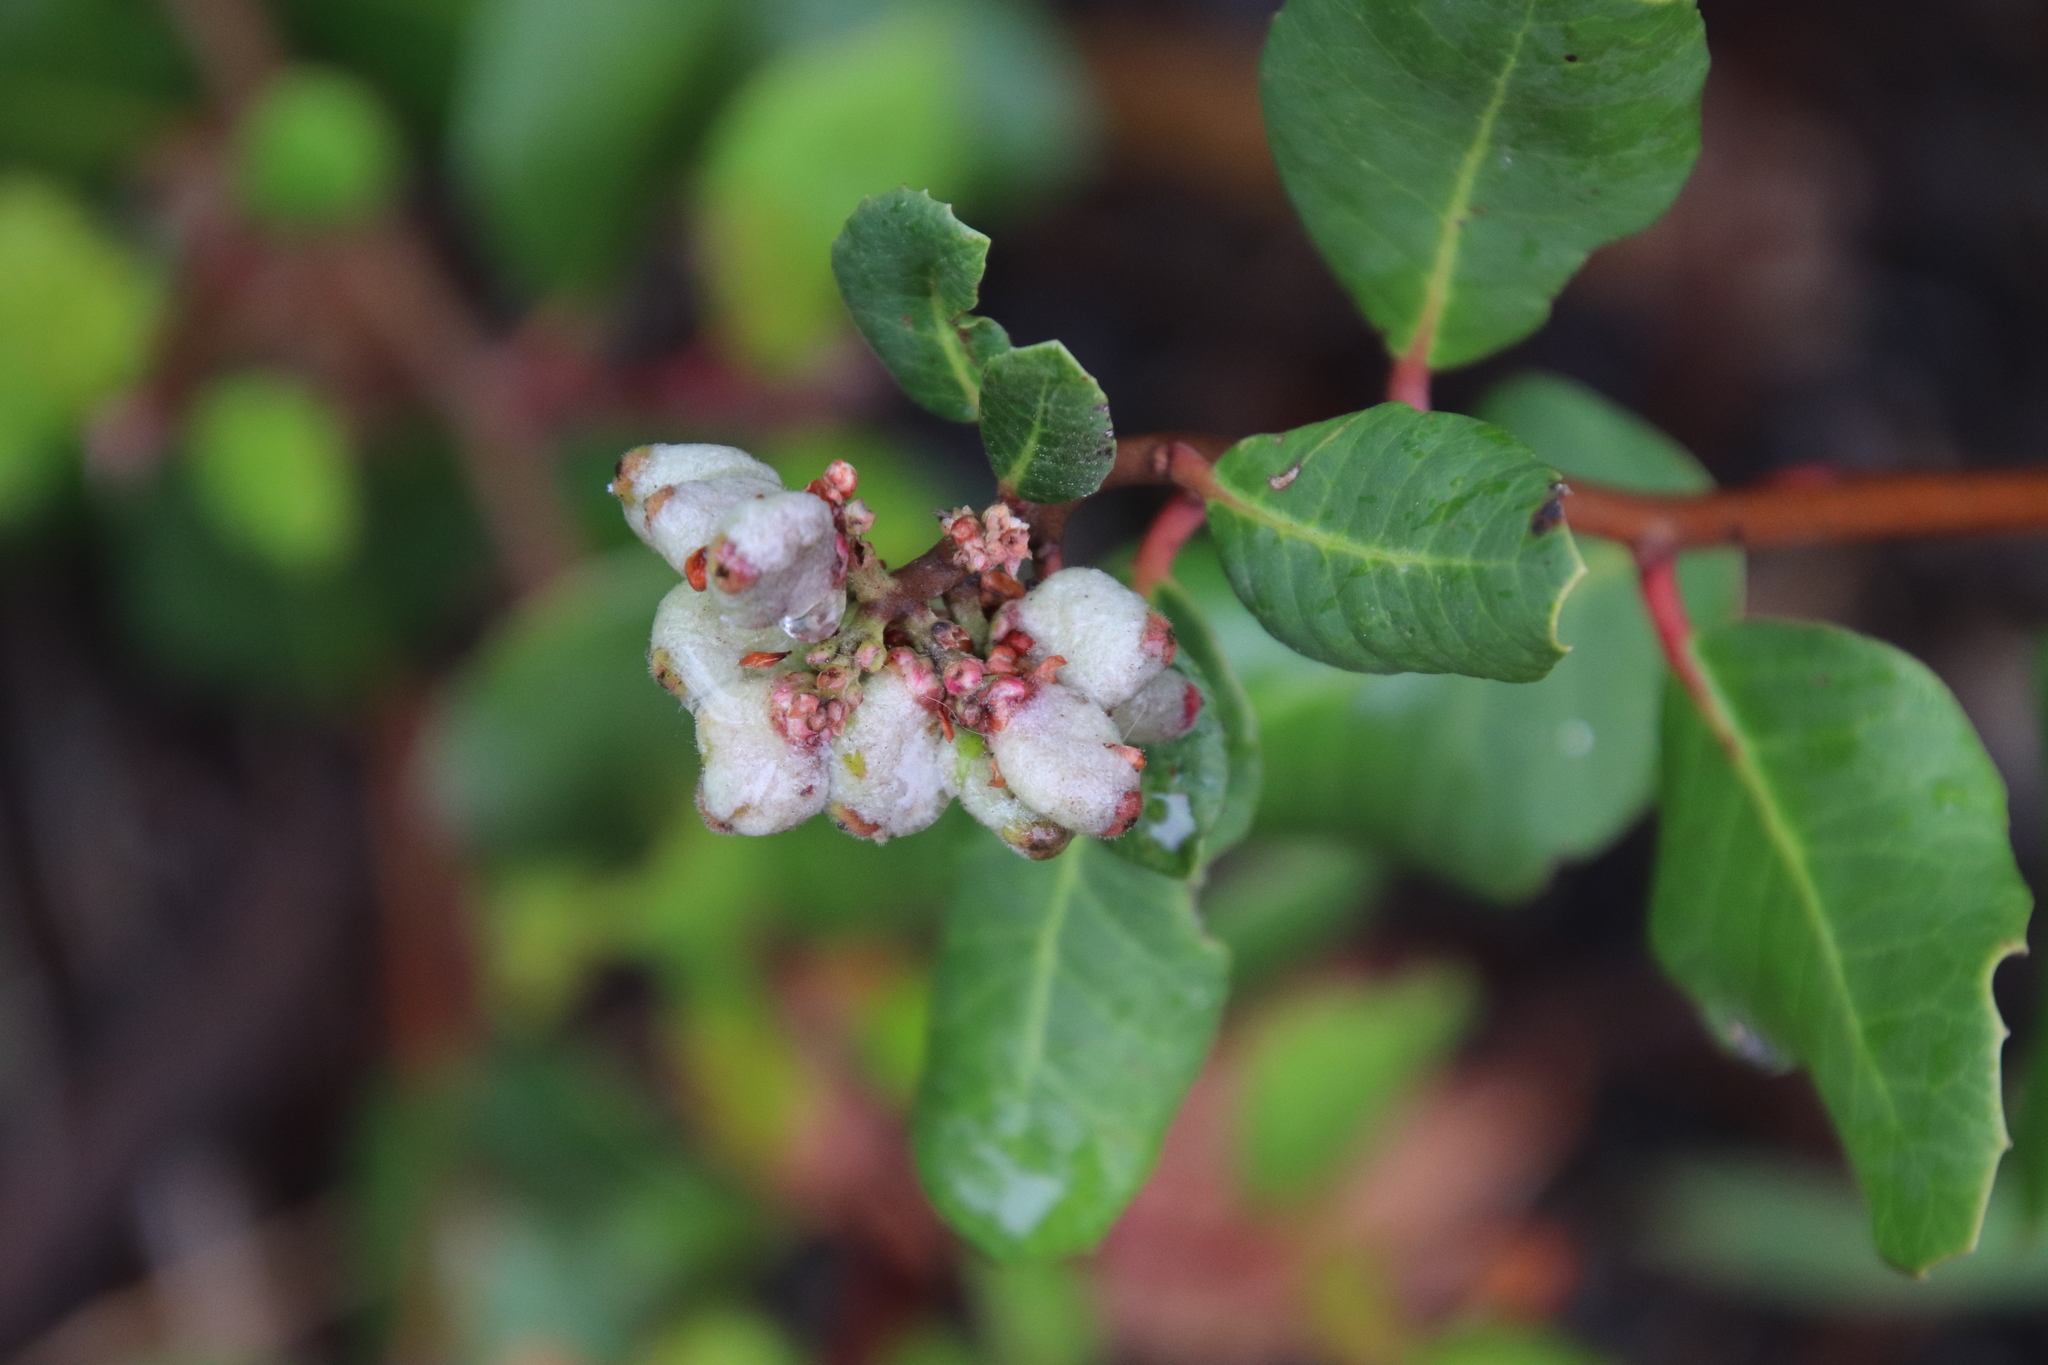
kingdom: Plantae
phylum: Tracheophyta
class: Magnoliopsida
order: Sapindales
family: Anacardiaceae
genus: Rhus
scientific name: Rhus integrifolia
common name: Lemonade sumac
